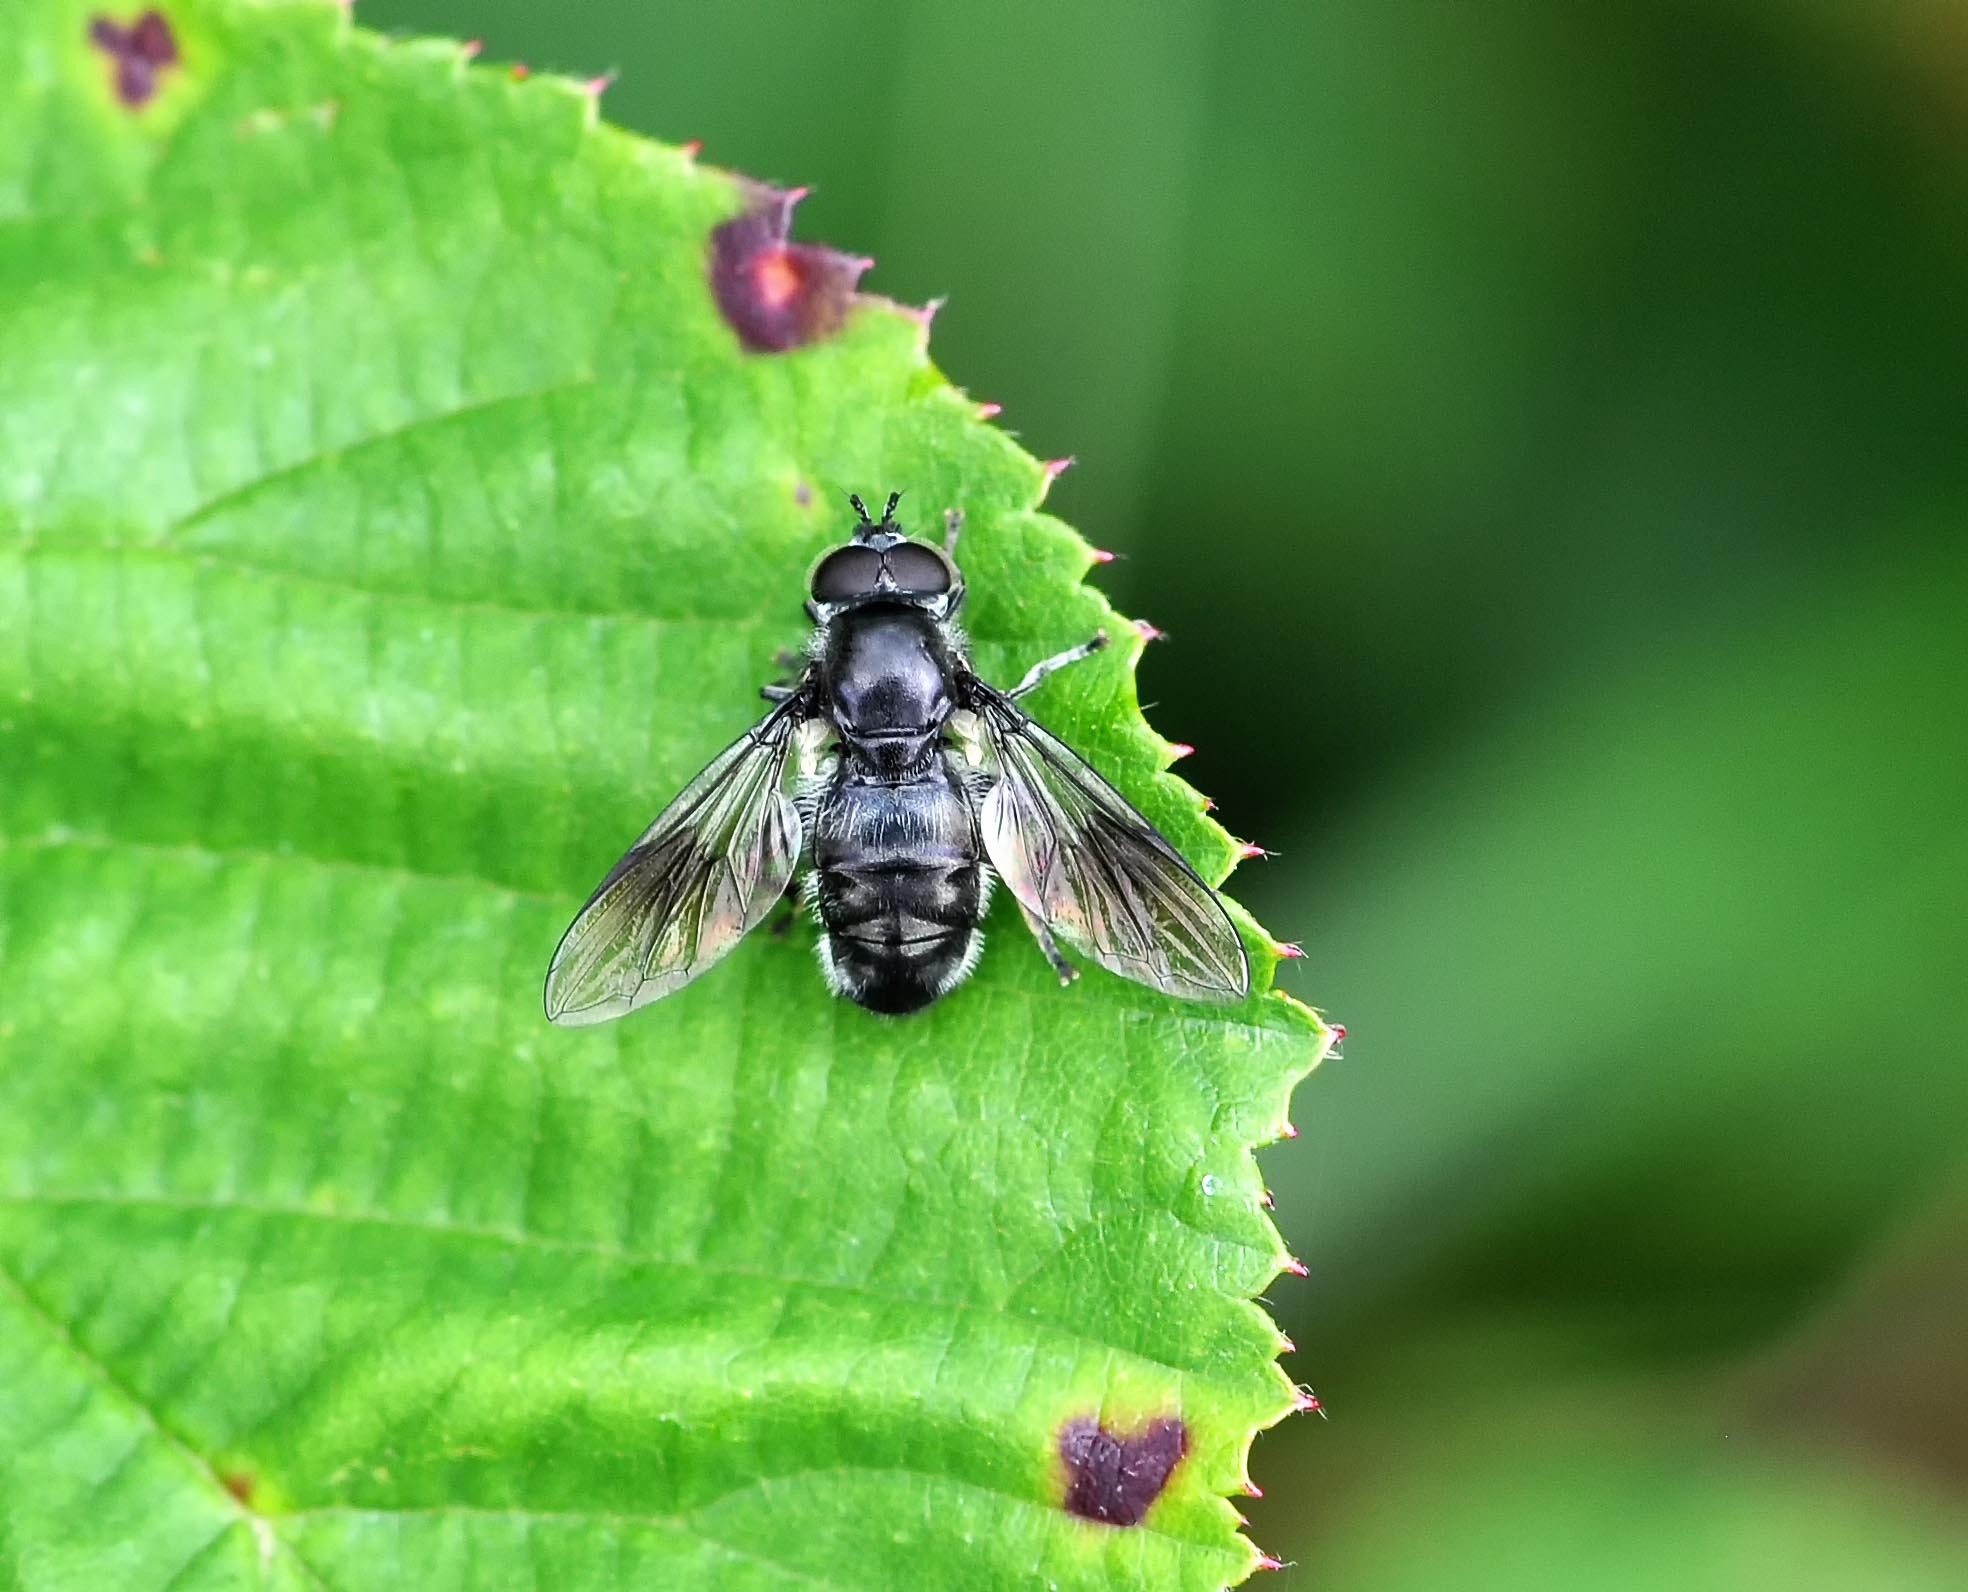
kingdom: Animalia
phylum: Arthropoda
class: Insecta
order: Diptera
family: Syrphidae
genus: Pipiza
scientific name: Pipiza
